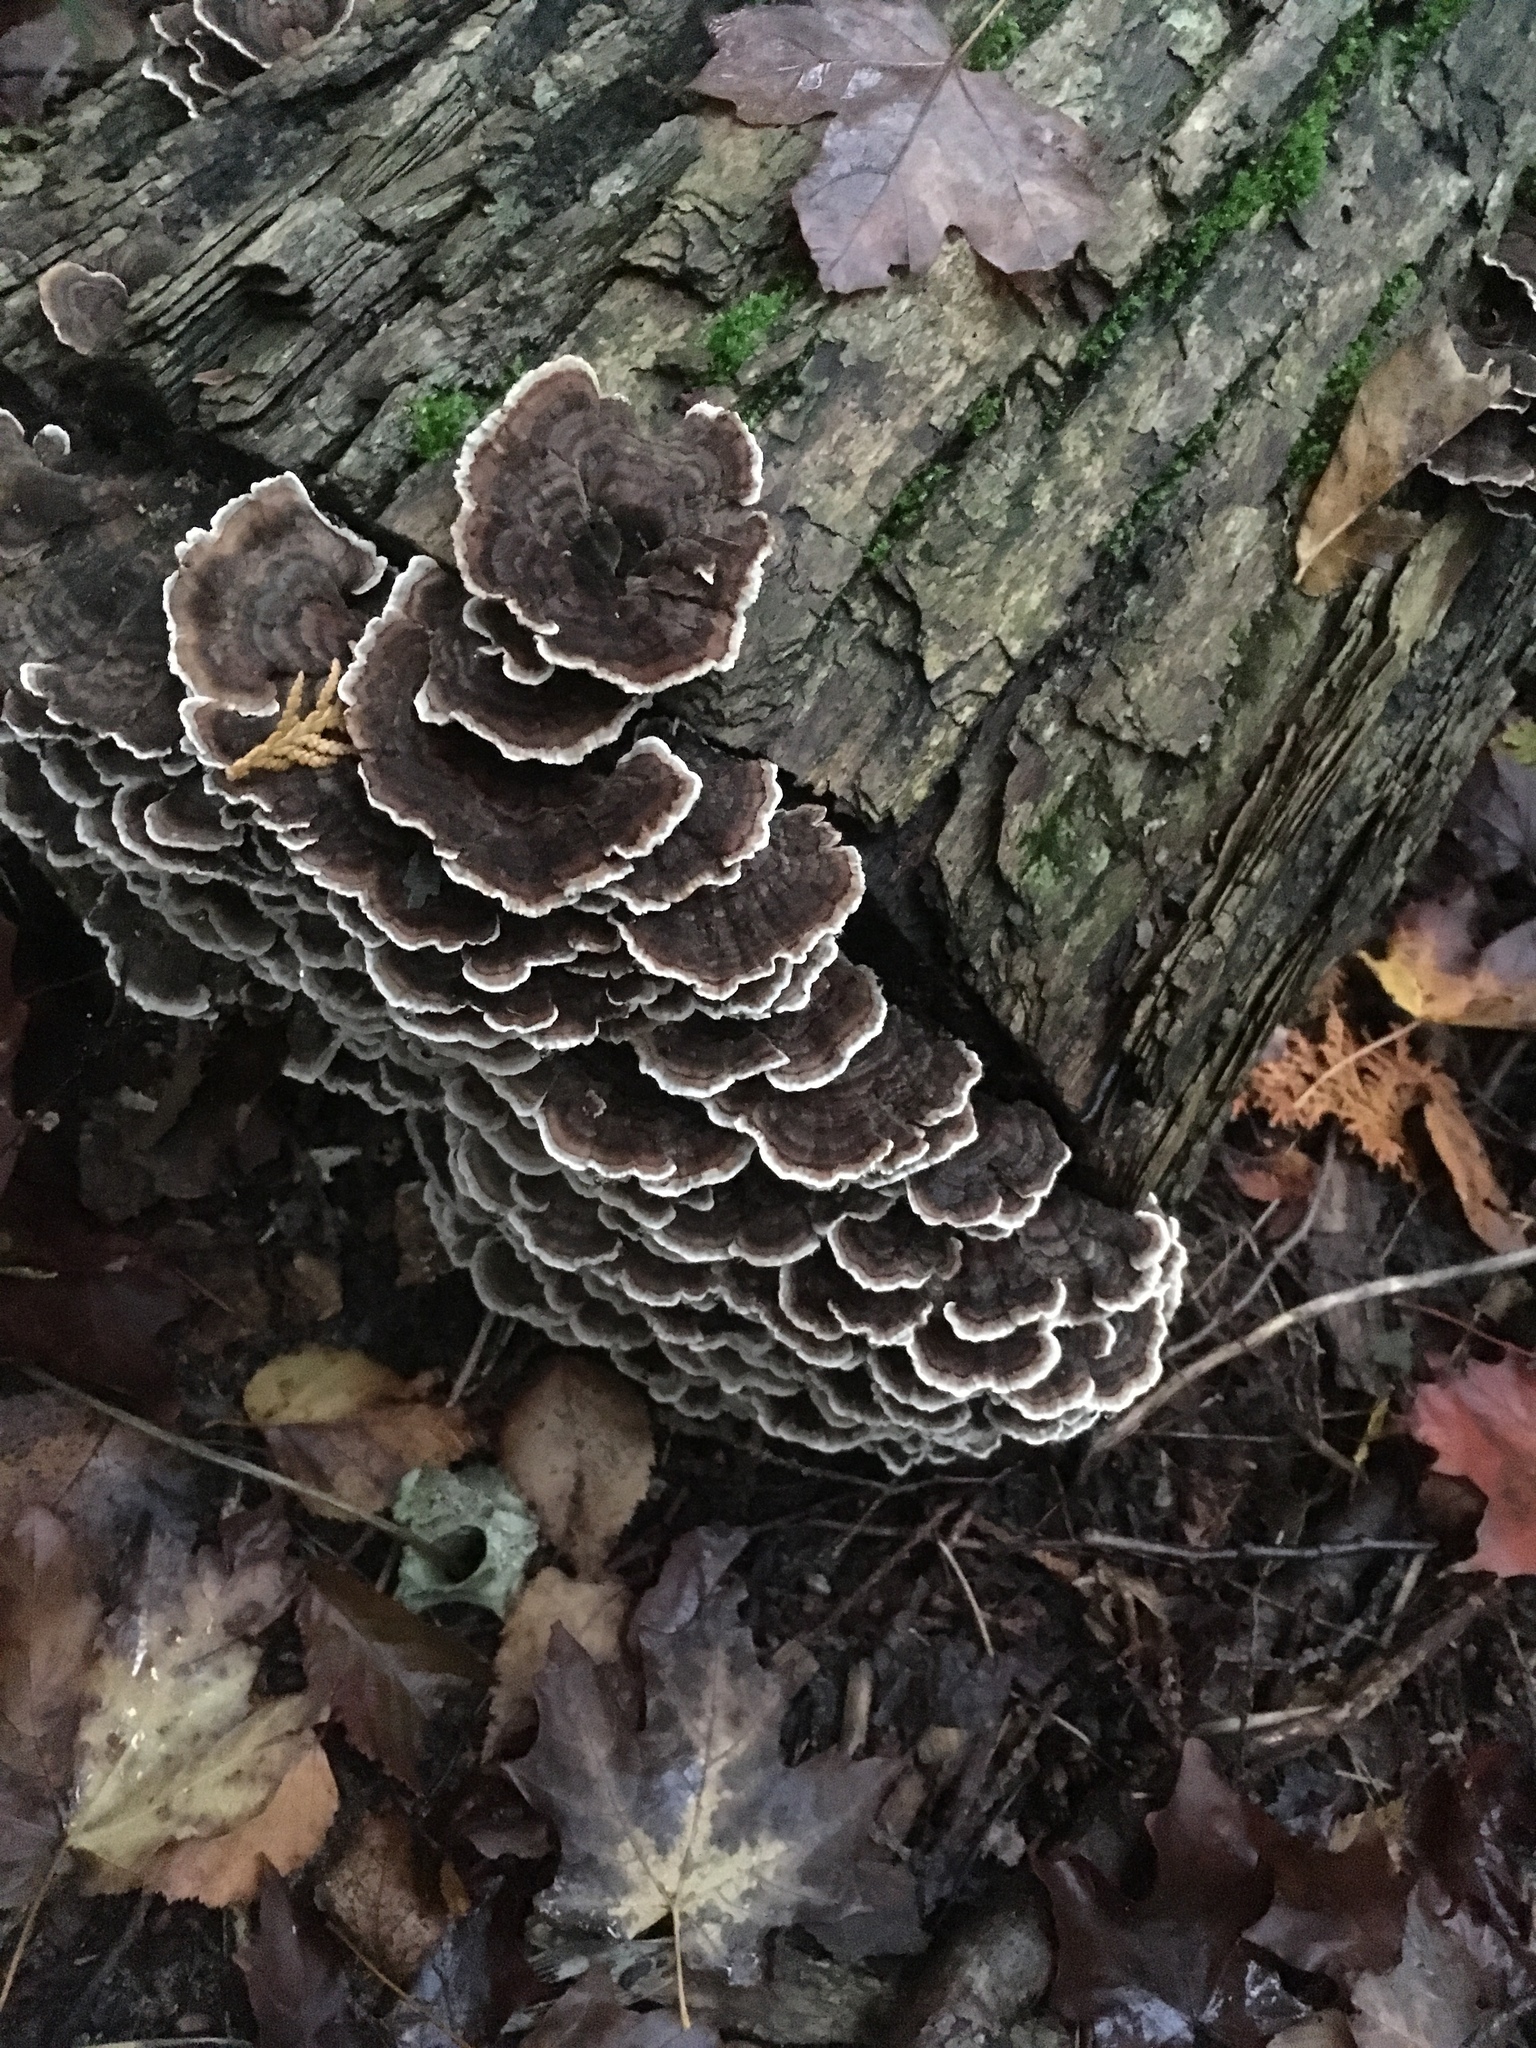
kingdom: Fungi
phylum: Basidiomycota
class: Agaricomycetes
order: Polyporales
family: Polyporaceae
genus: Trametes
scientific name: Trametes versicolor
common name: Turkeytail
